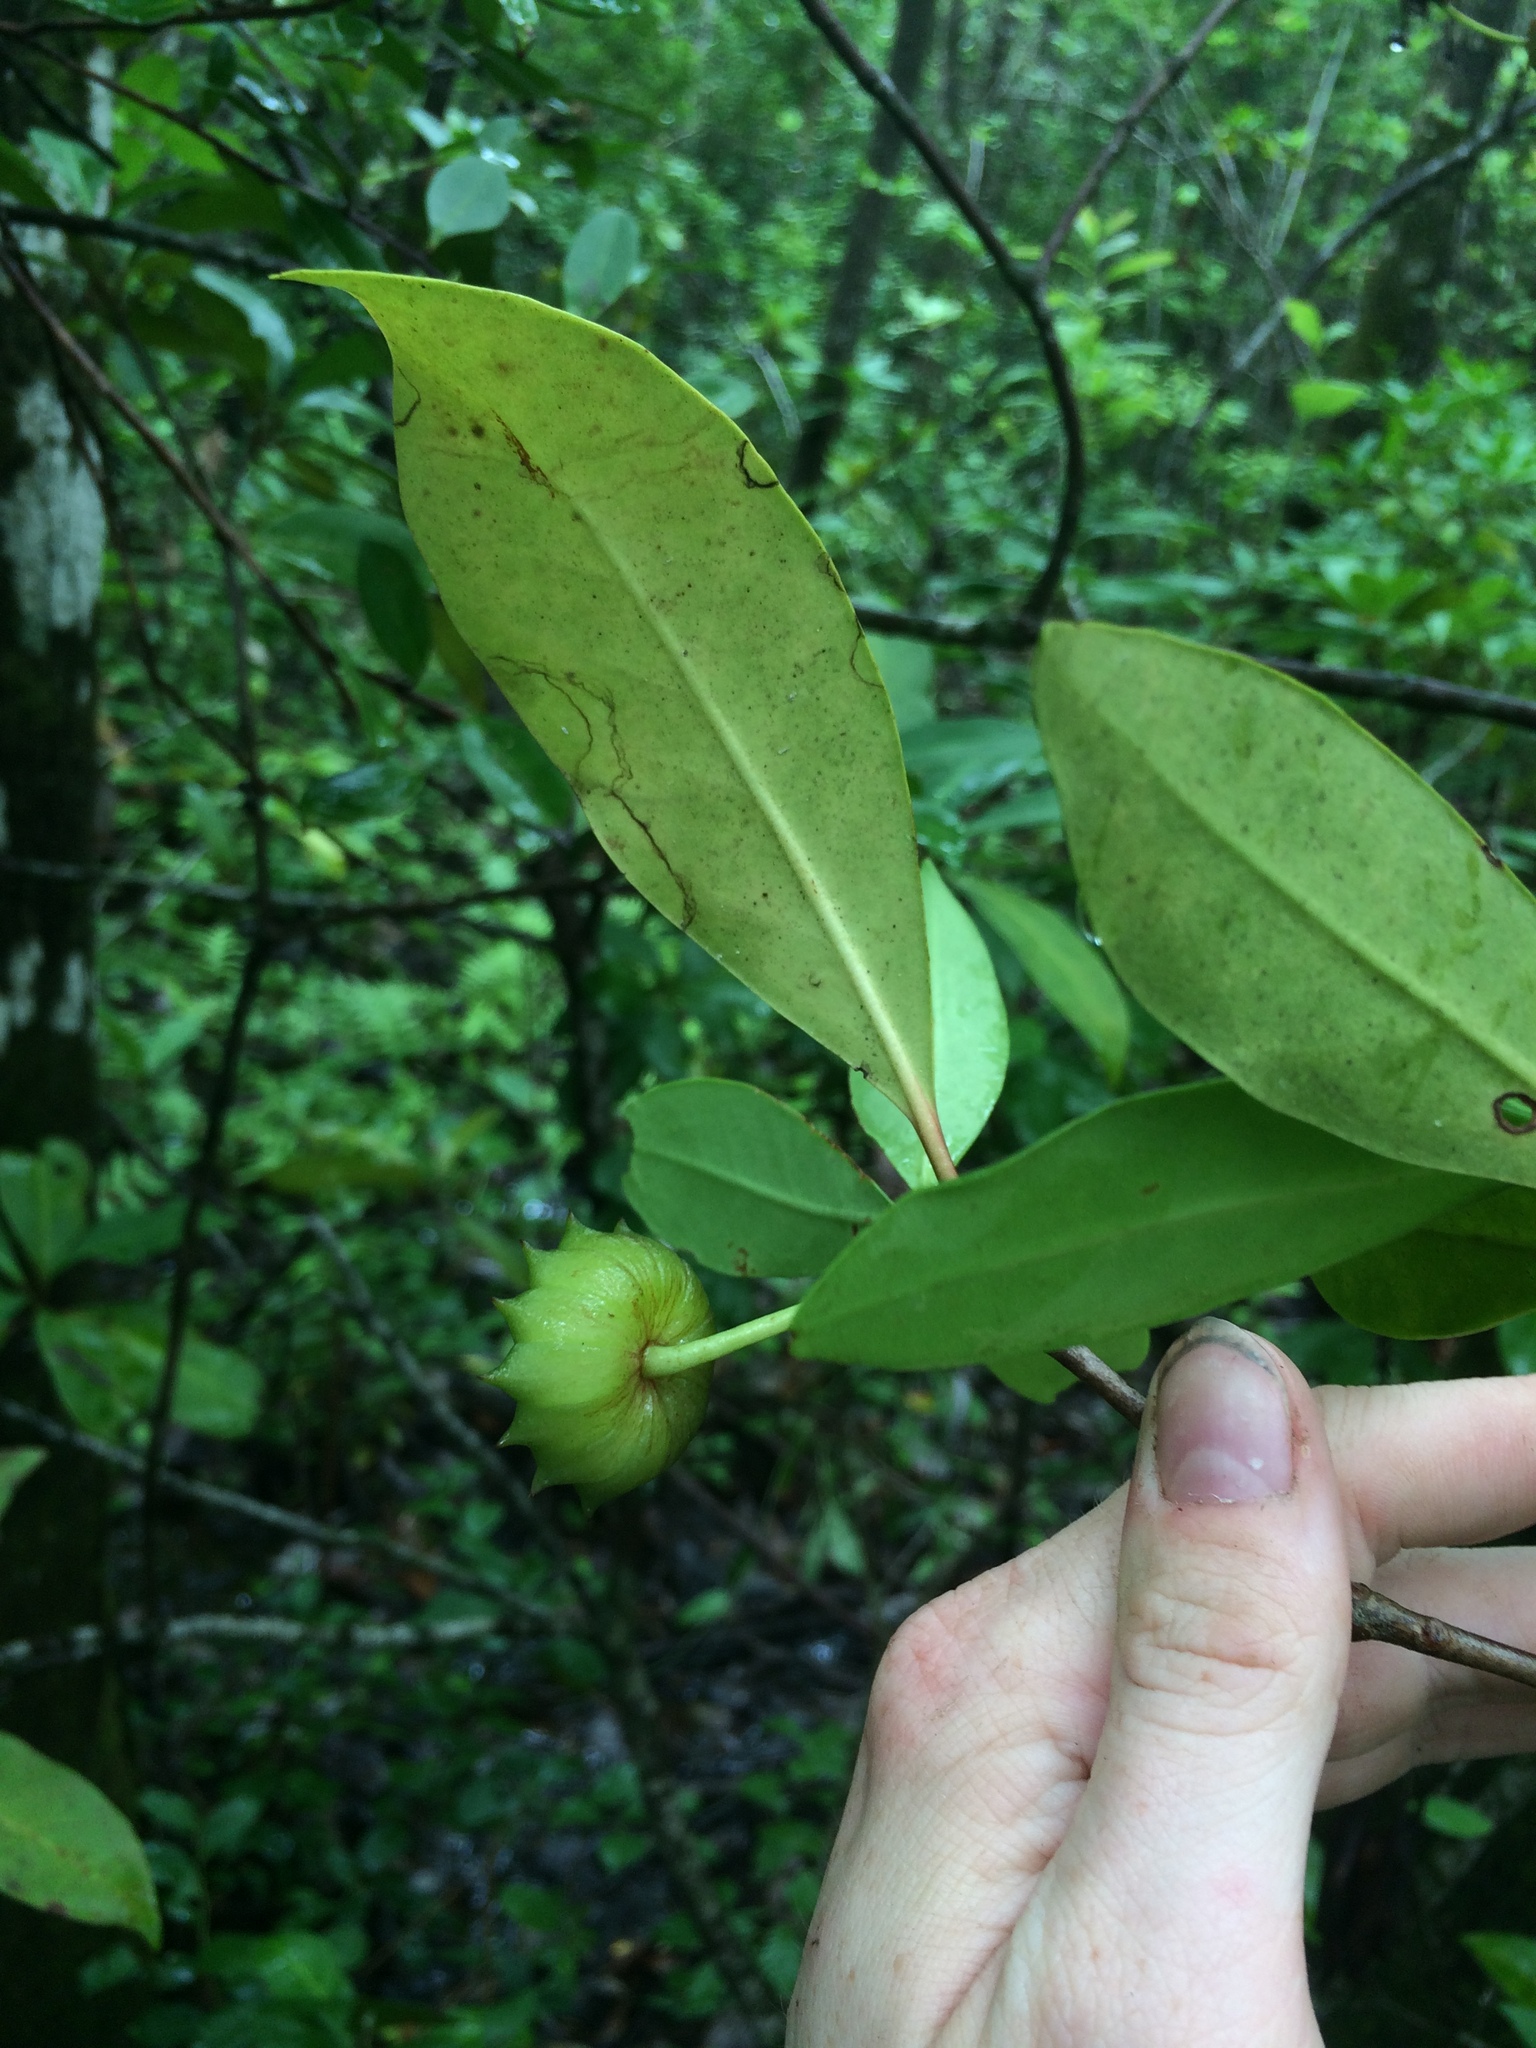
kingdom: Plantae
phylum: Tracheophyta
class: Magnoliopsida
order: Austrobaileyales
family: Schisandraceae
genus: Illicium
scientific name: Illicium floridanum
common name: Florida anisetree
